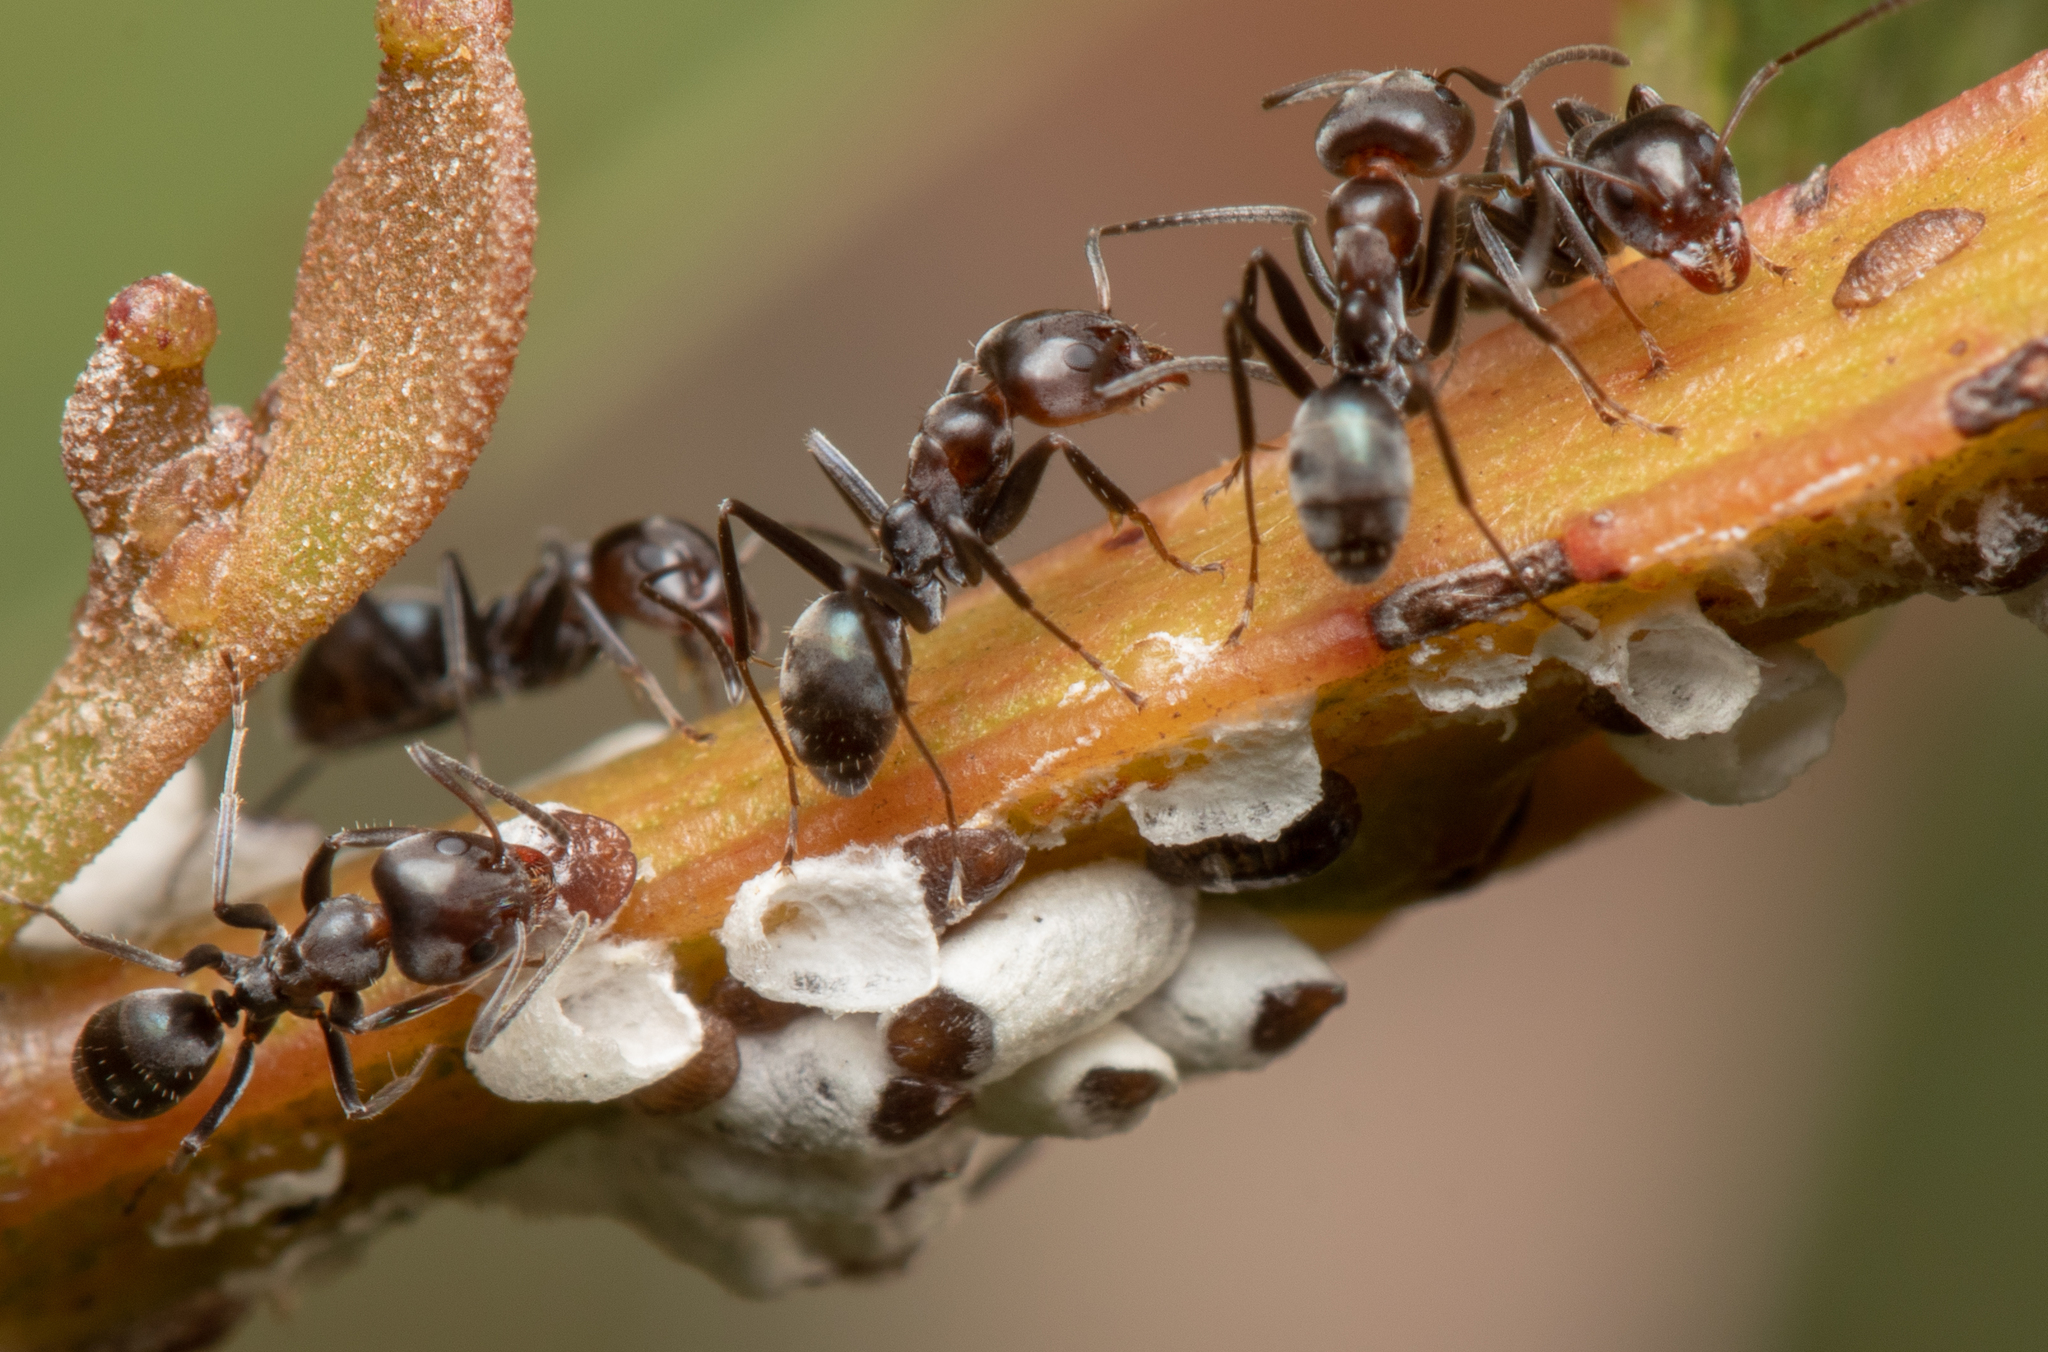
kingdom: Animalia
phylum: Arthropoda
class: Insecta
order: Hymenoptera
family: Formicidae
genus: Iridomyrmex
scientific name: Iridomyrmex rufoniger
